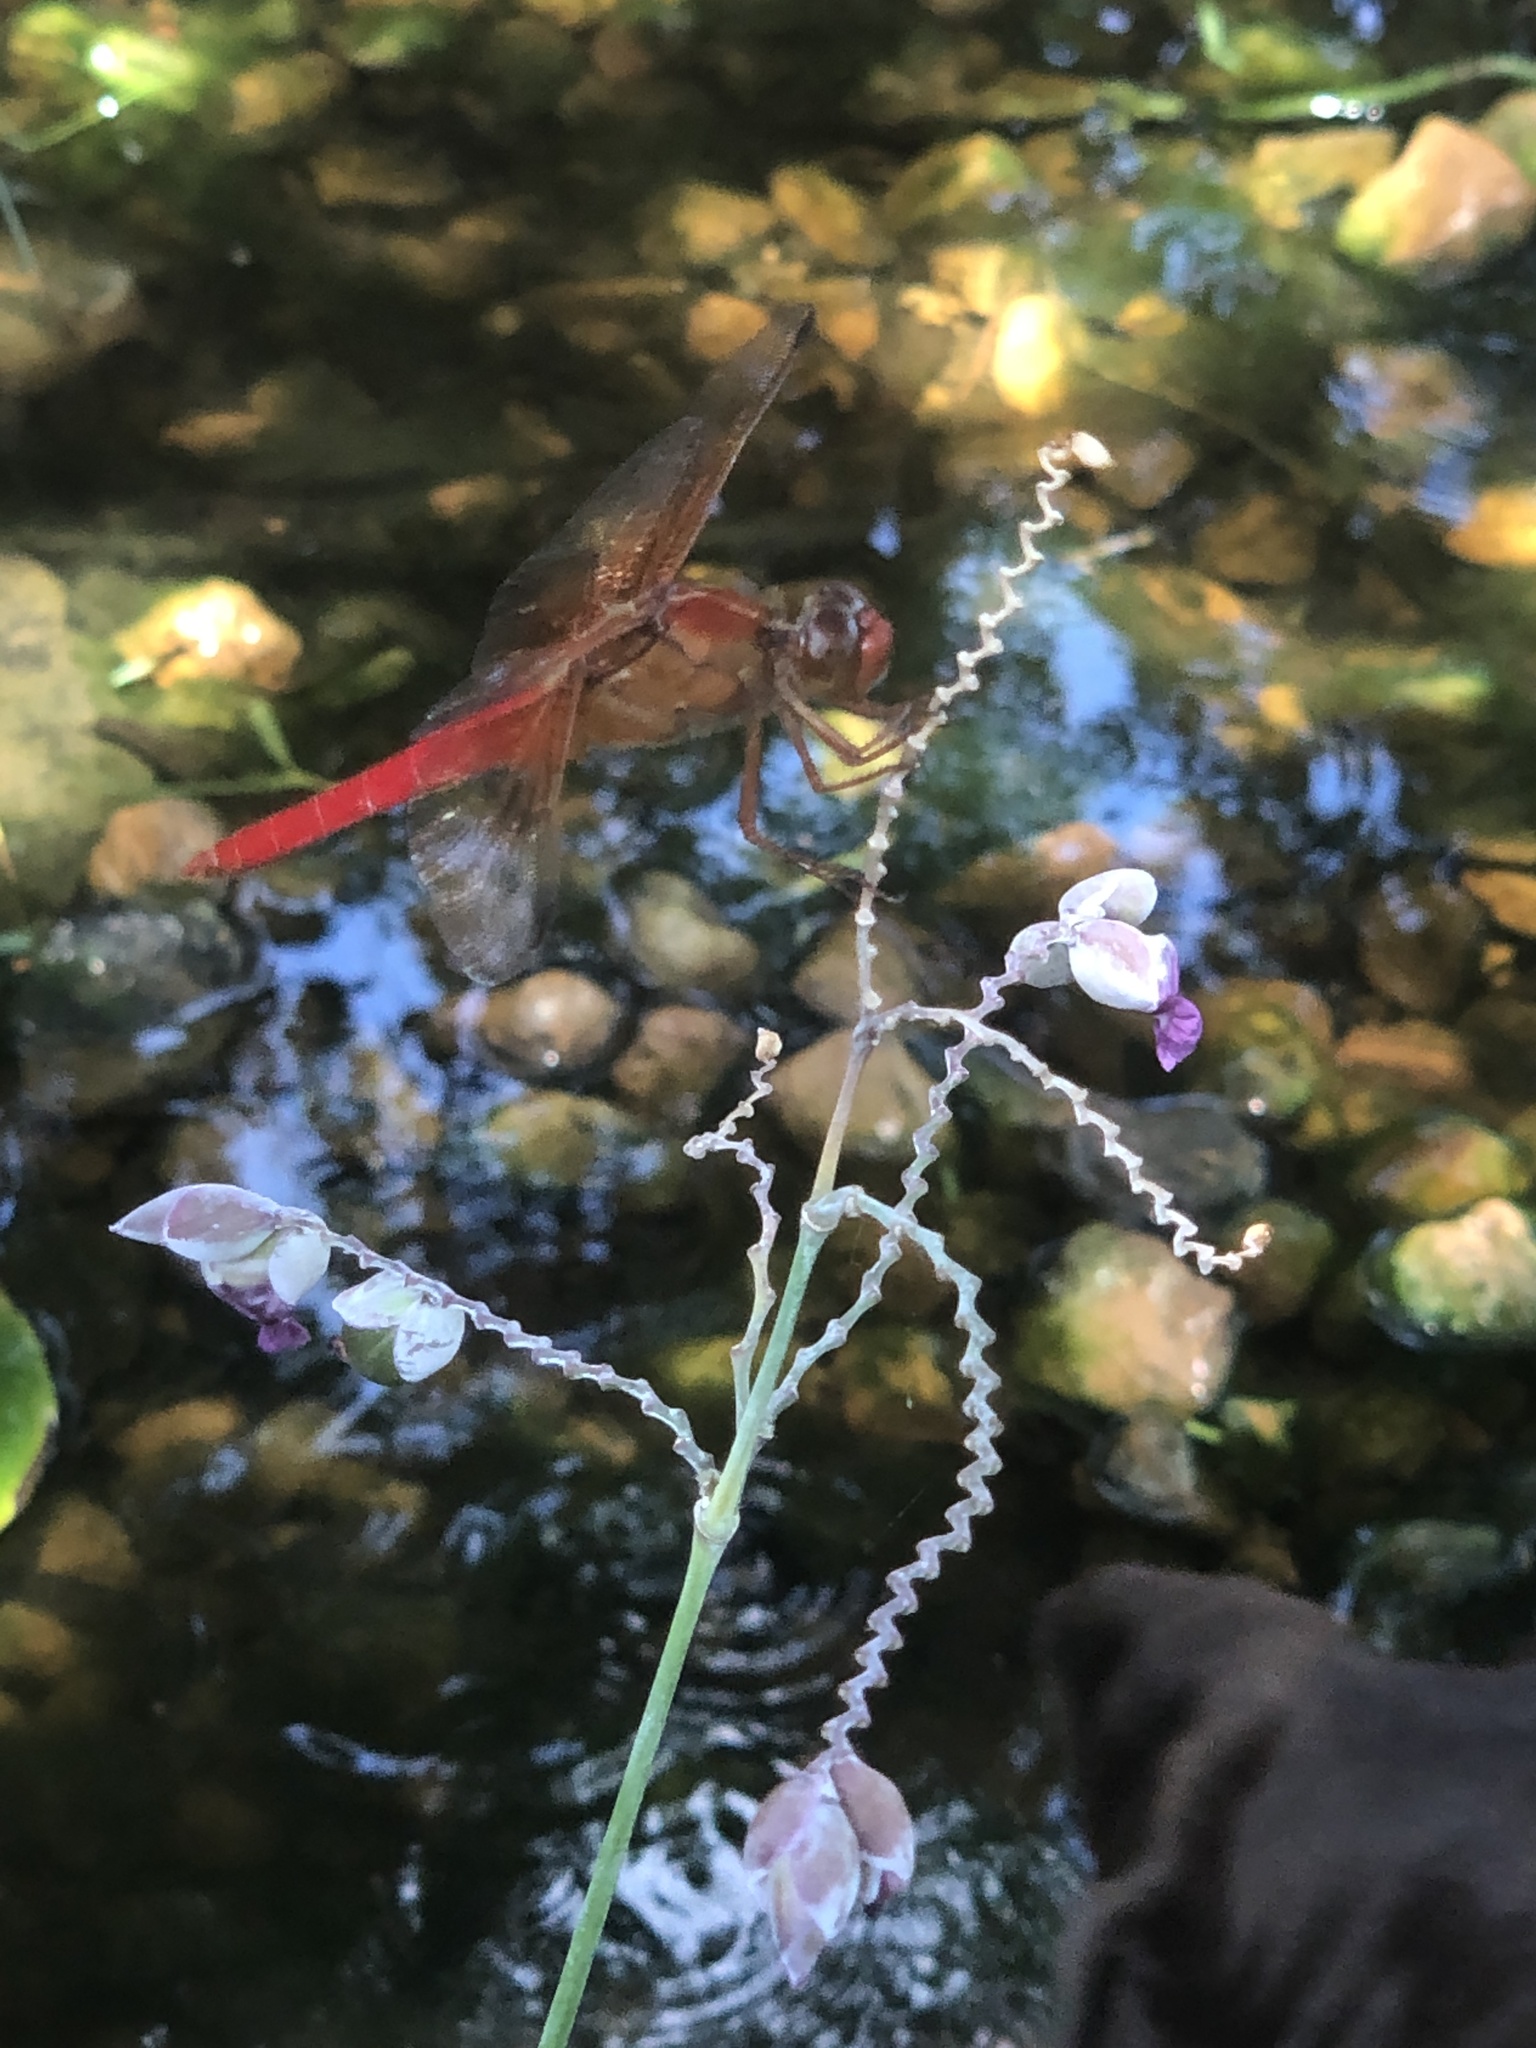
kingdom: Animalia
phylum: Arthropoda
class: Insecta
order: Odonata
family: Libellulidae
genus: Libellula
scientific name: Libellula croceipennis
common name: Neon skimmer
